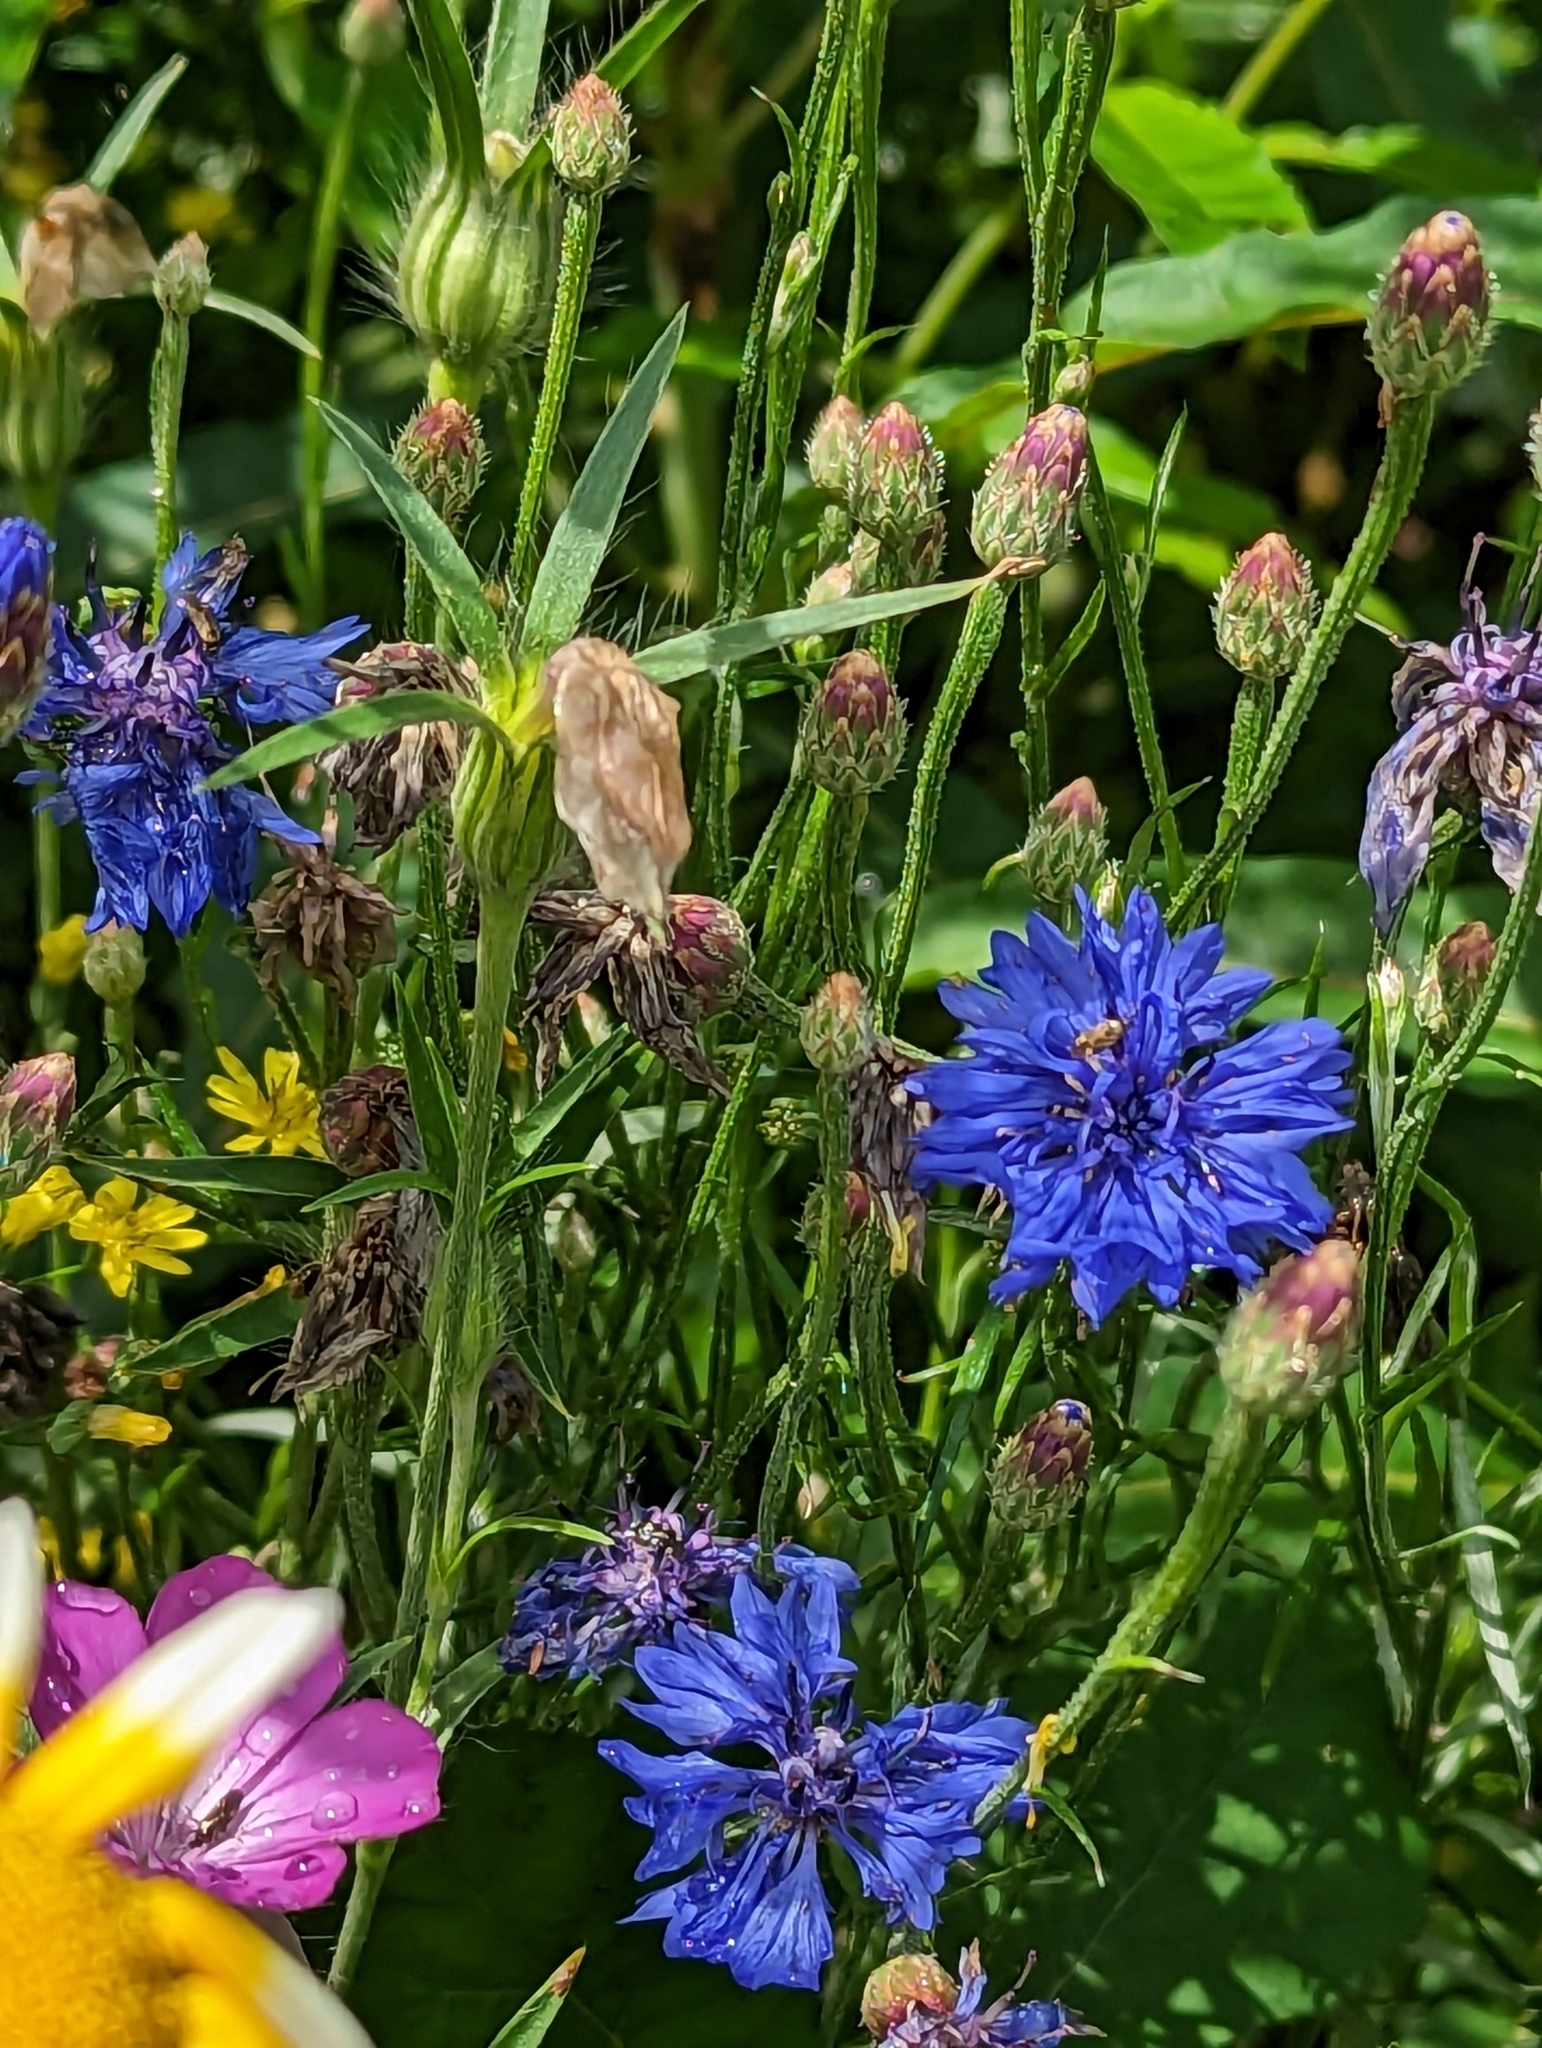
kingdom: Plantae
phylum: Tracheophyta
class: Magnoliopsida
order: Asterales
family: Asteraceae
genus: Centaurea
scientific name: Centaurea cyanus
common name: Cornflower
